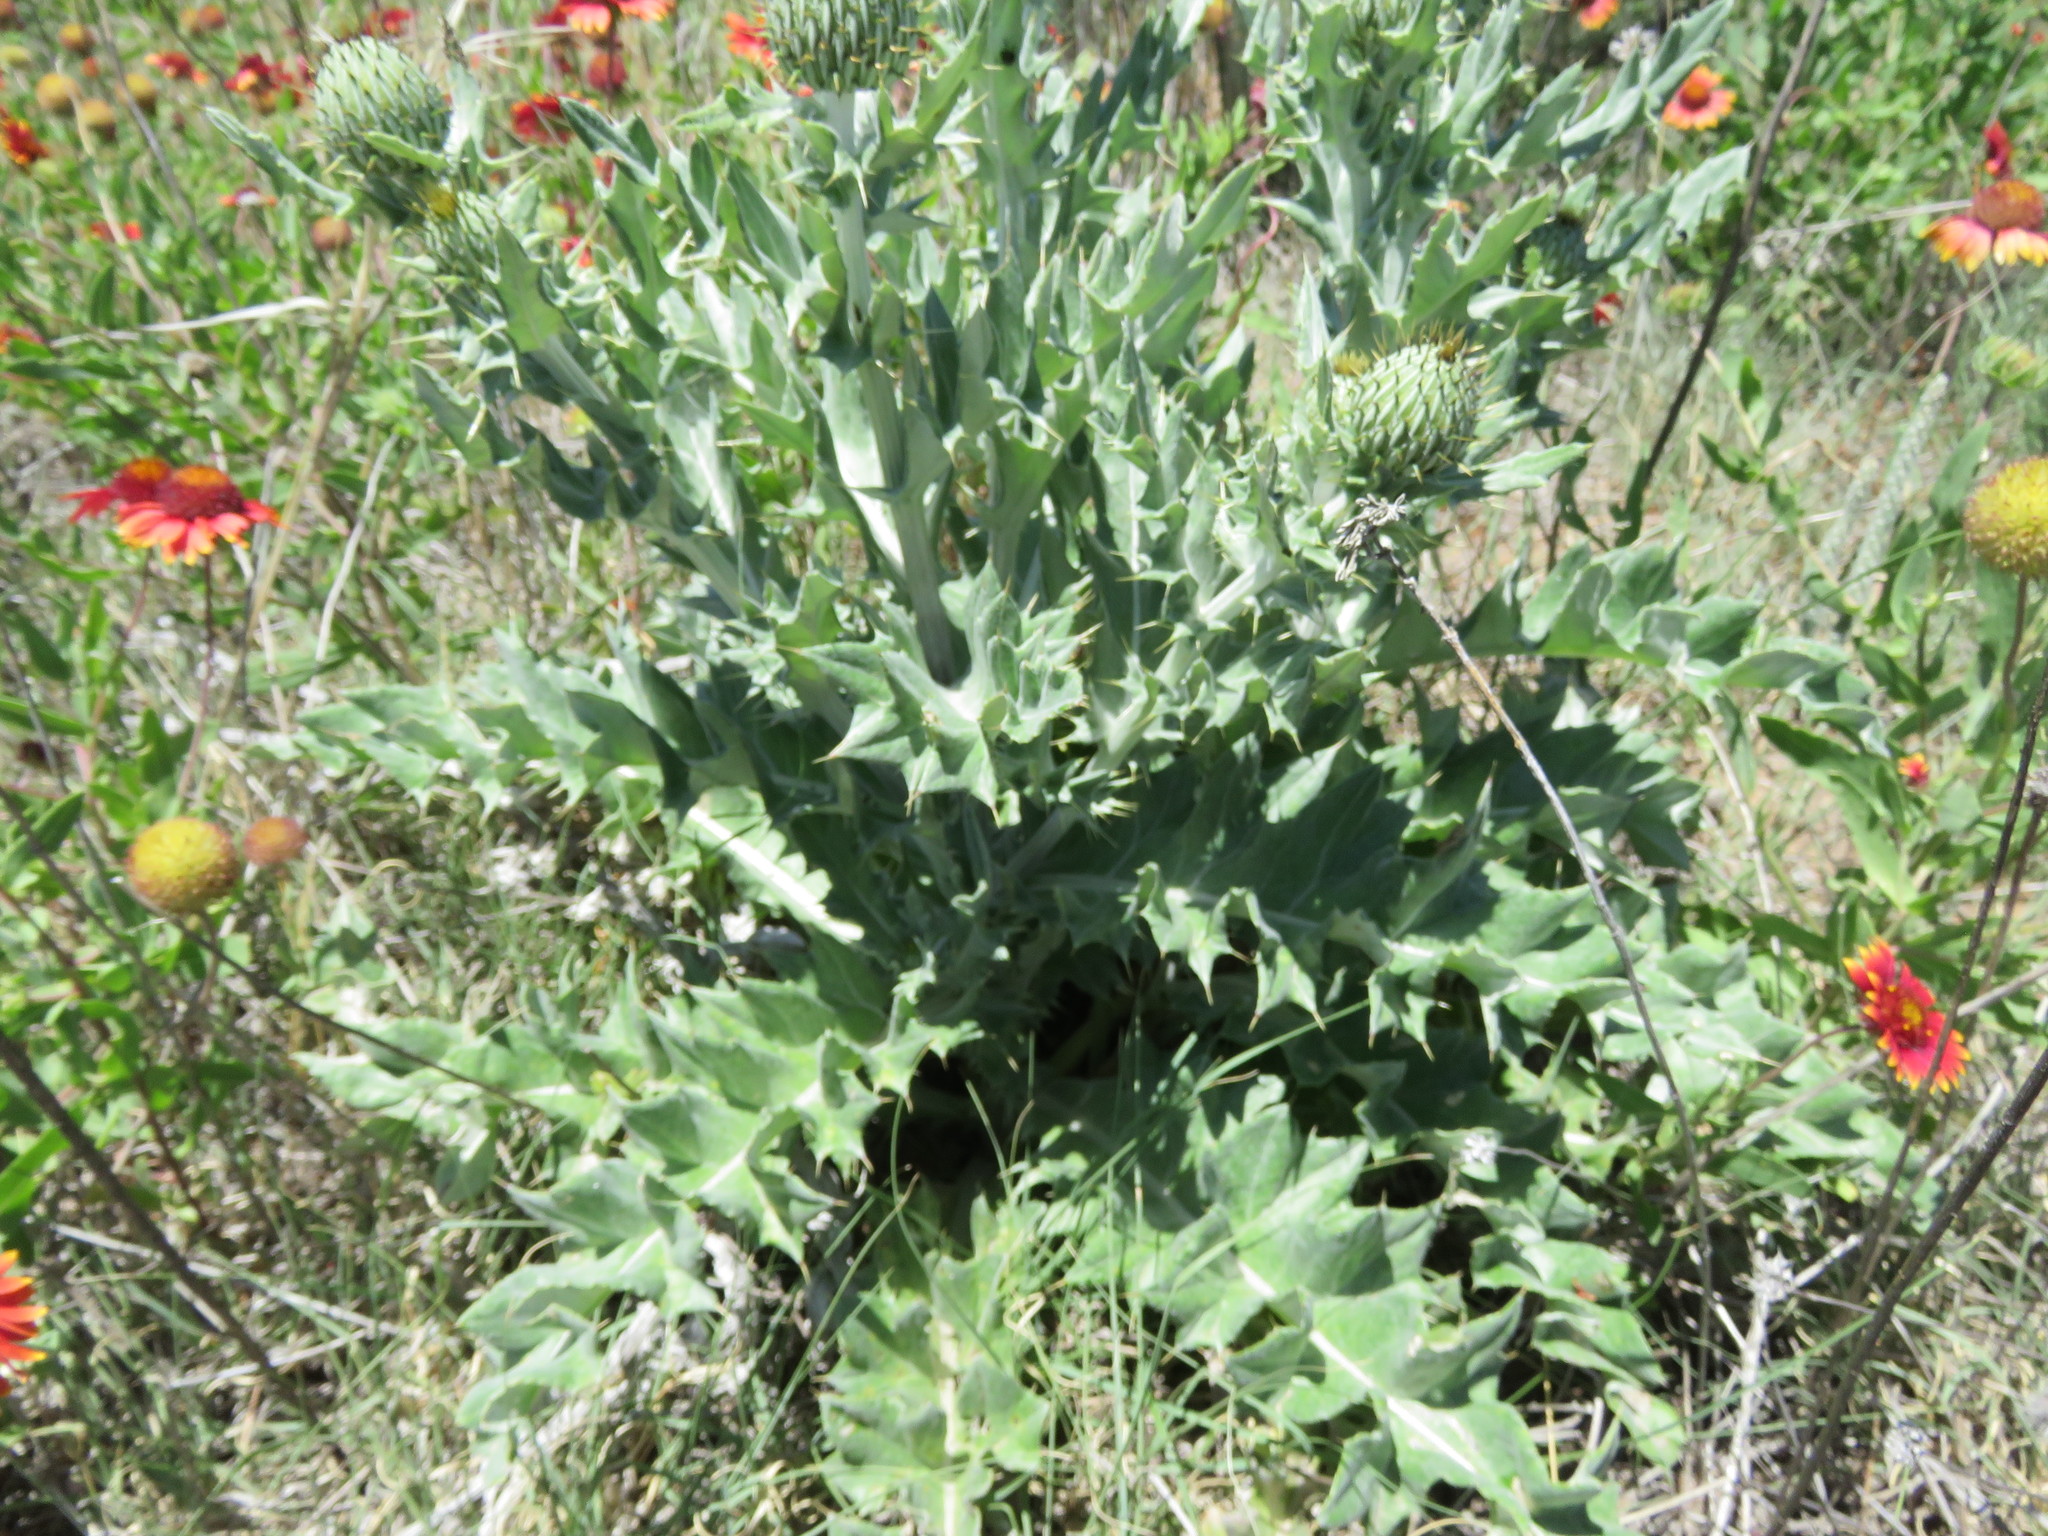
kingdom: Plantae
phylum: Tracheophyta
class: Magnoliopsida
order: Asterales
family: Asteraceae
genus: Cirsium
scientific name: Cirsium undulatum
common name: Pasture thistle
